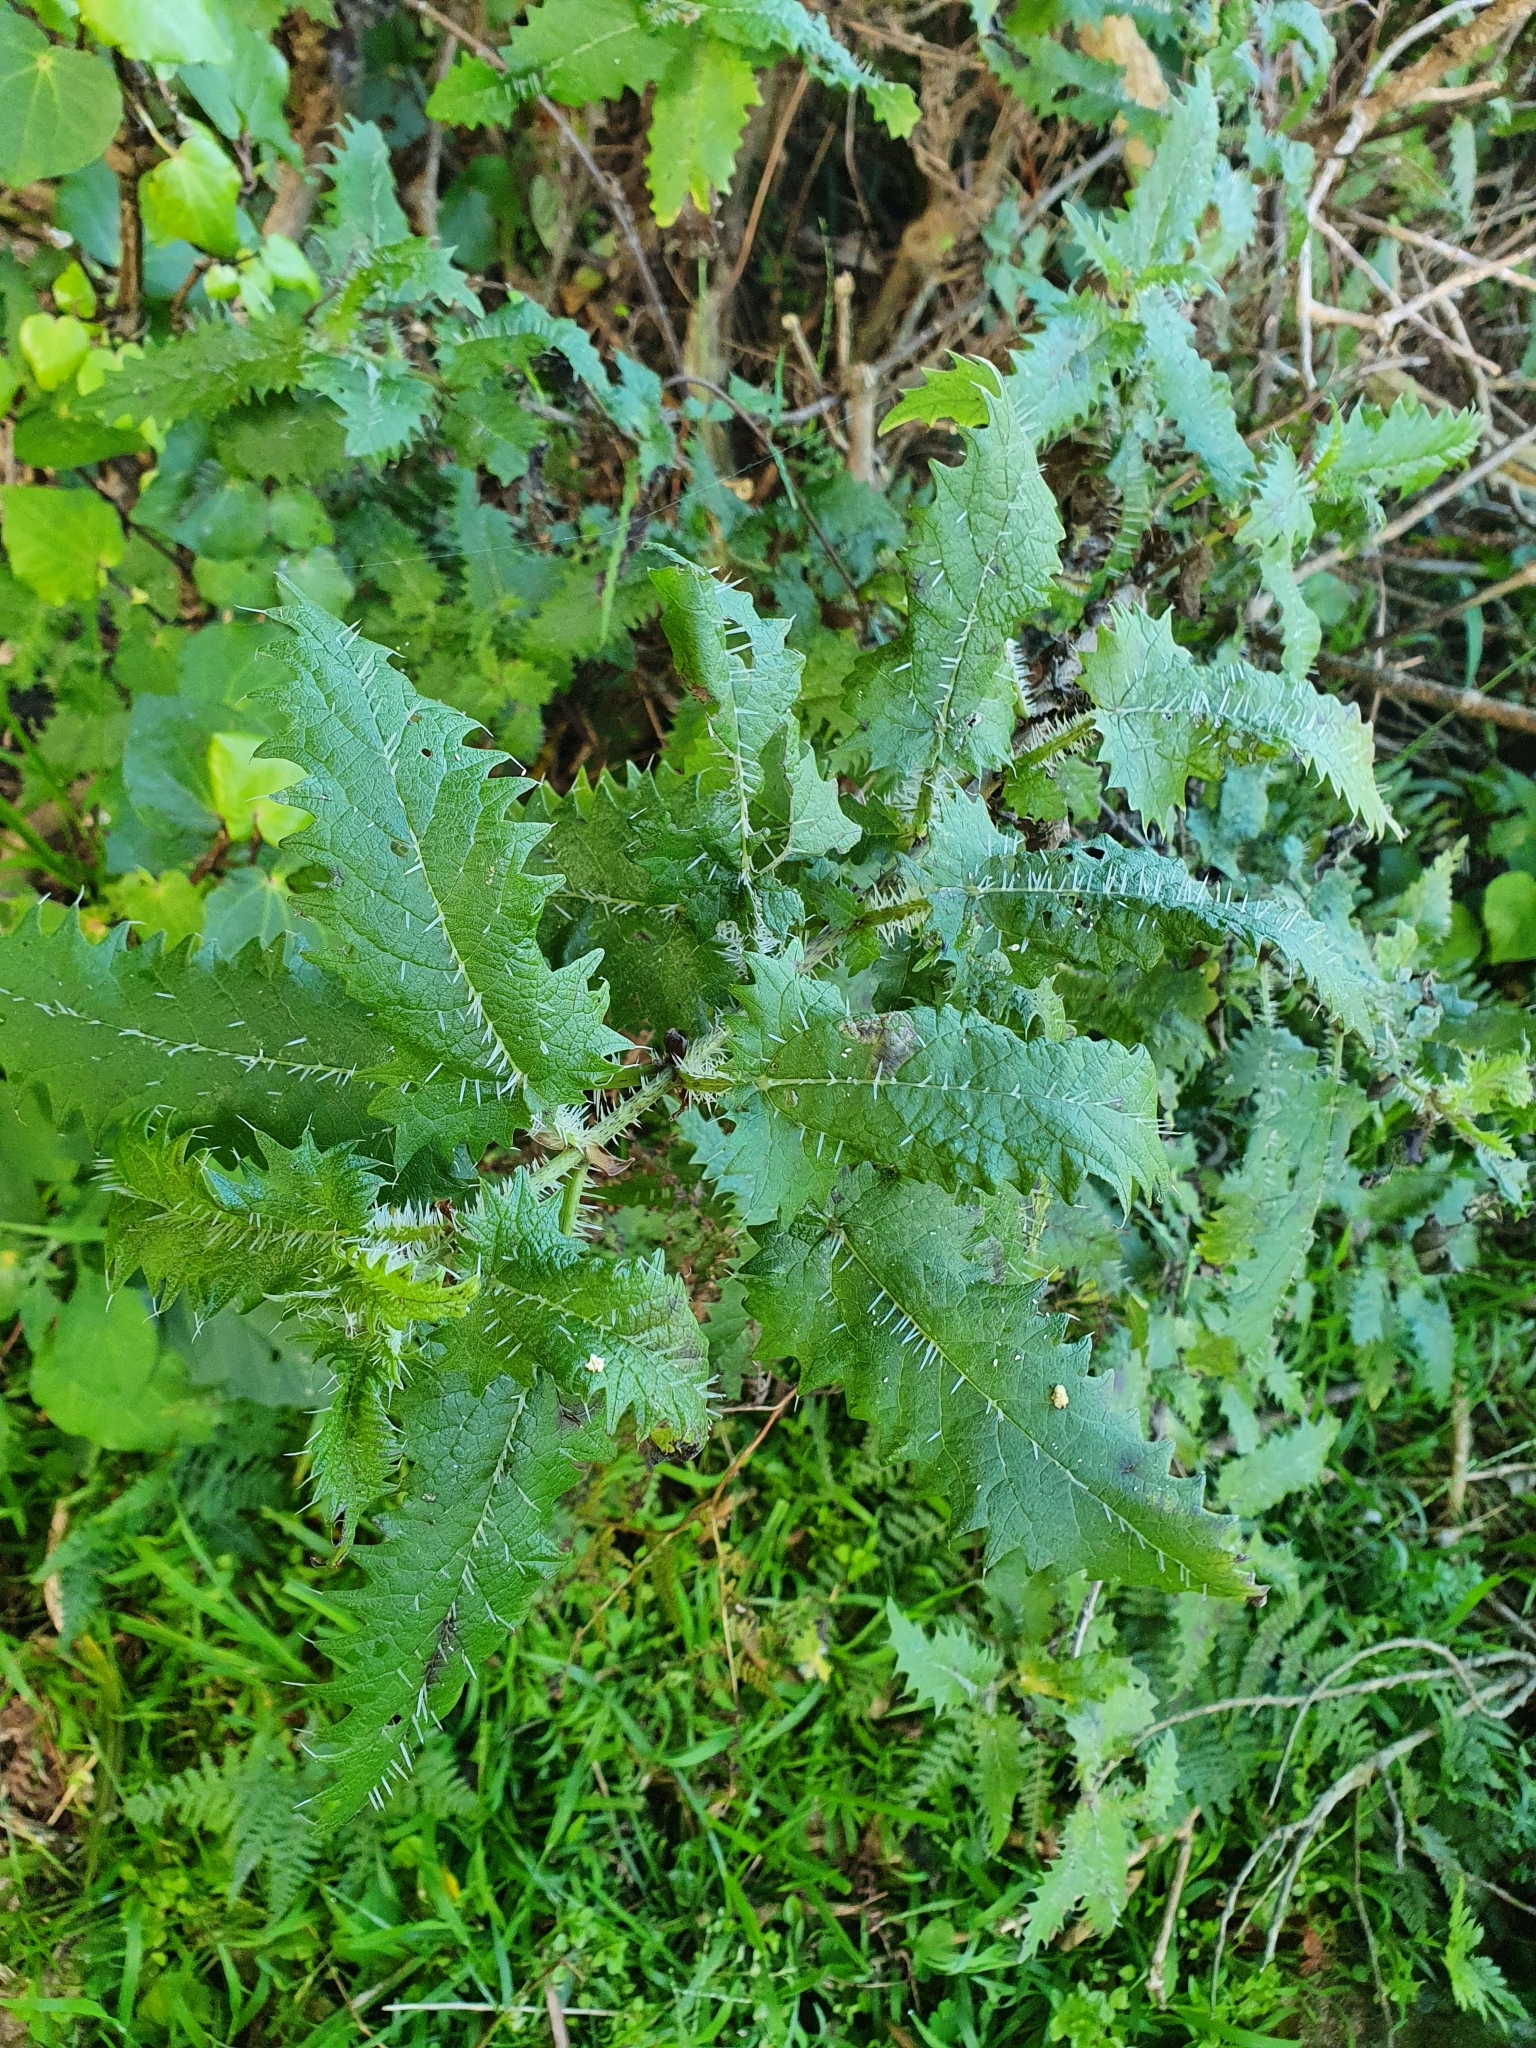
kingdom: Plantae
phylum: Tracheophyta
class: Magnoliopsida
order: Rosales
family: Urticaceae
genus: Urtica
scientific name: Urtica ferox
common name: Tree nettle
